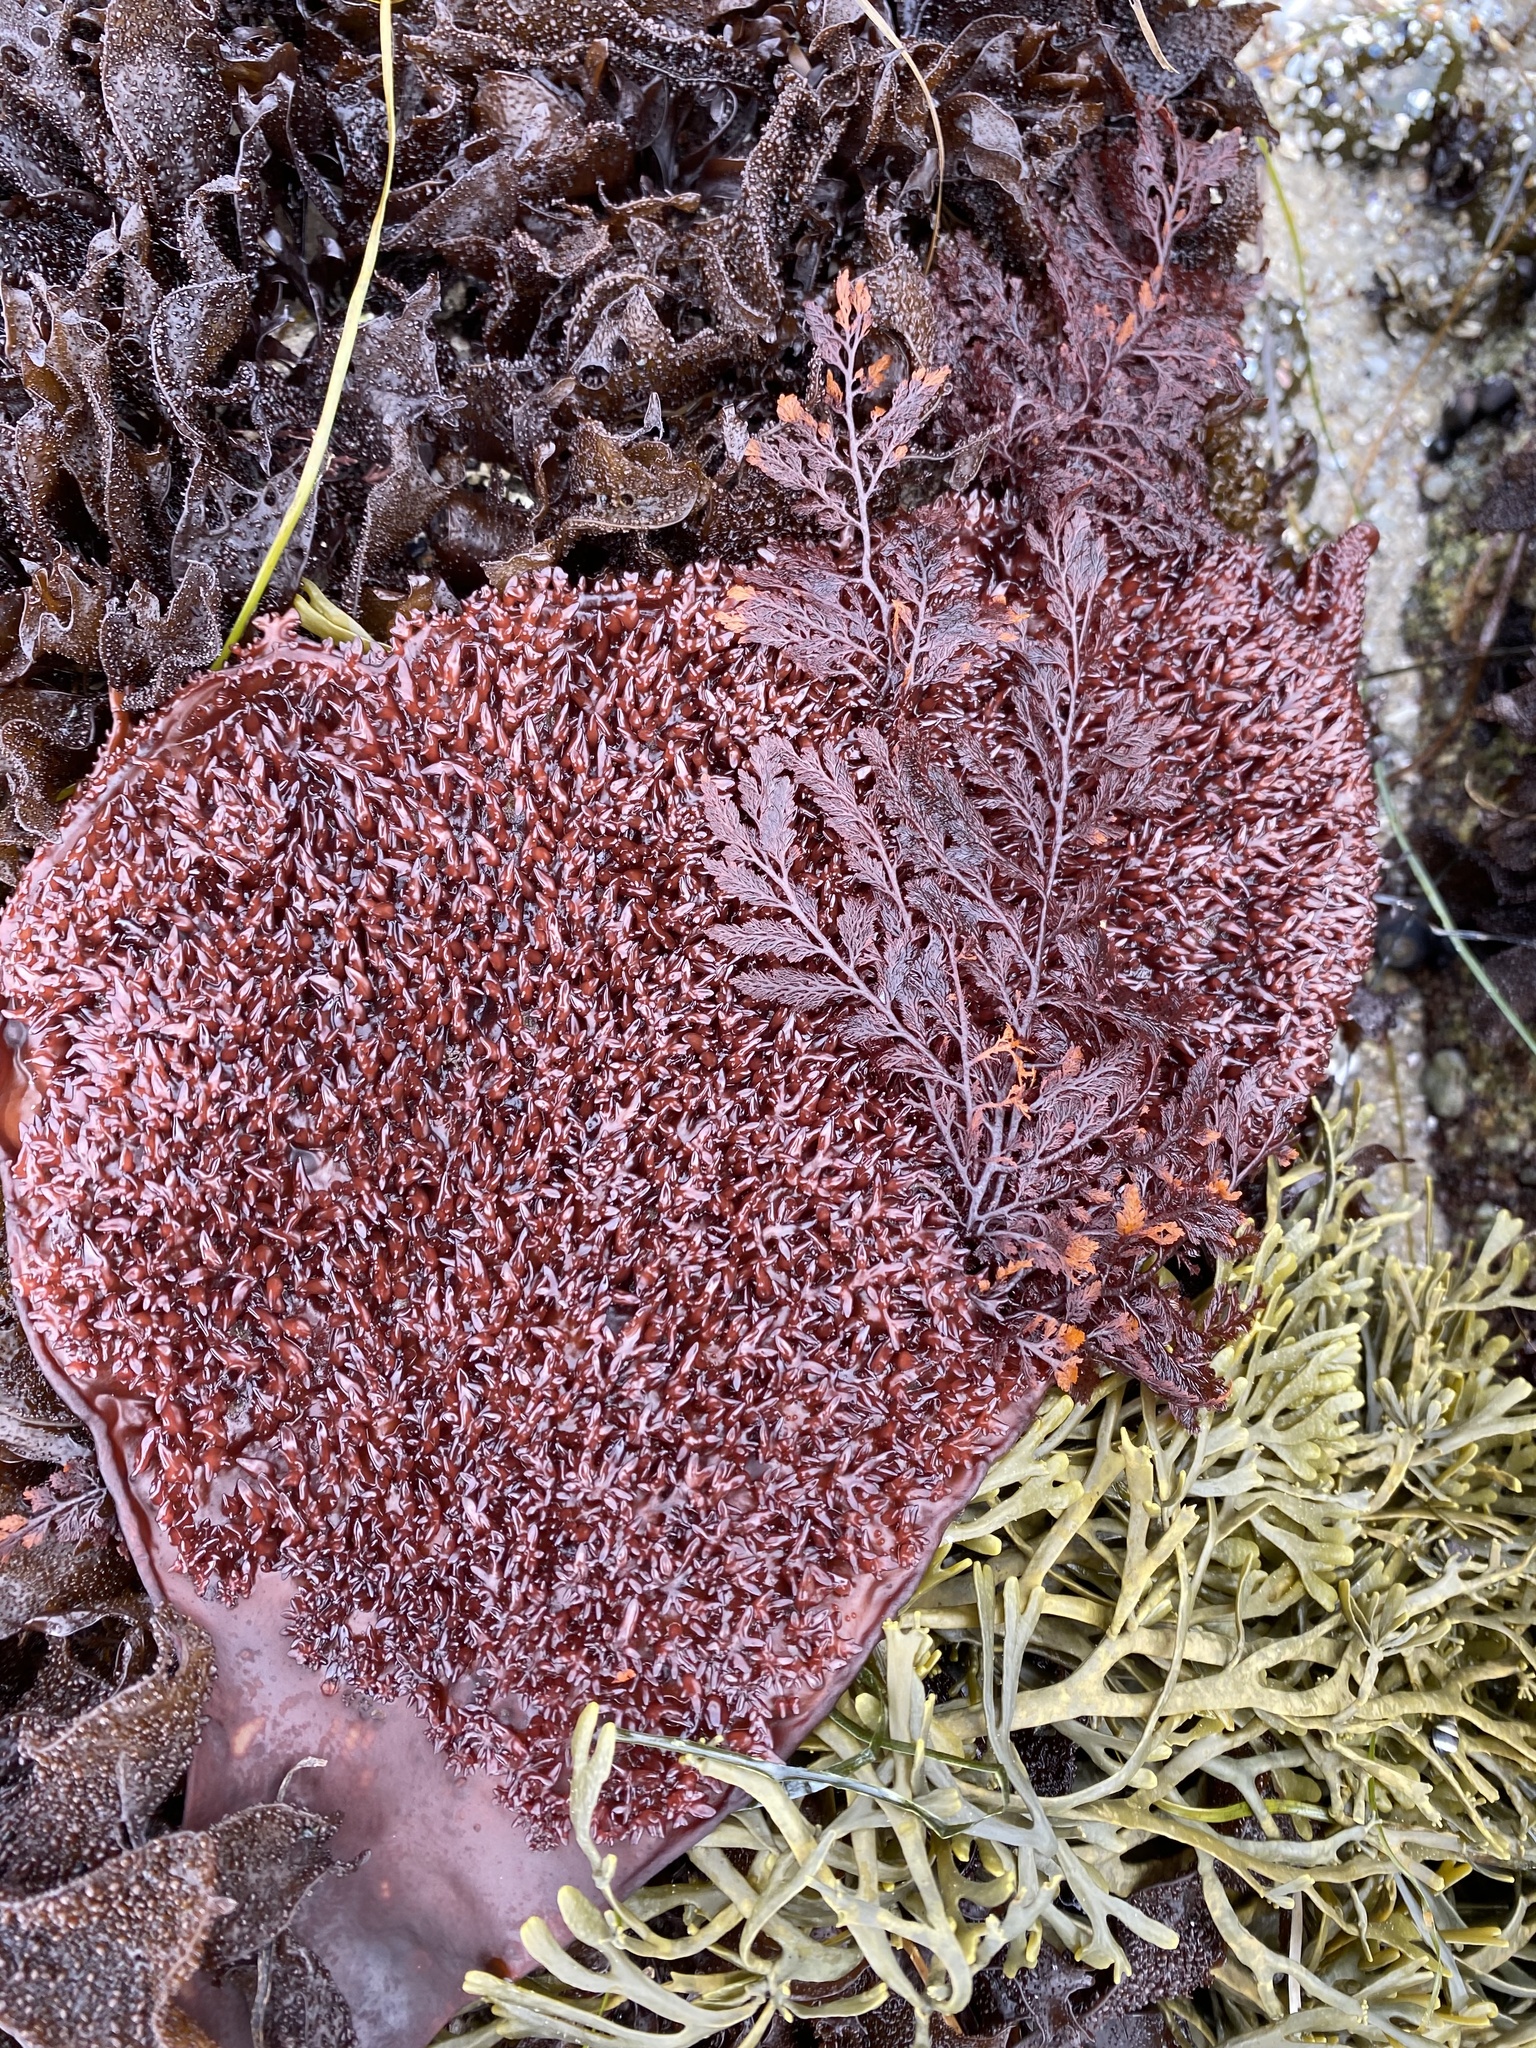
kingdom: Plantae
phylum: Rhodophyta
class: Florideophyceae
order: Gigartinales
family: Gigartinaceae
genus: Chondracanthus
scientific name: Chondracanthus exasperatus
